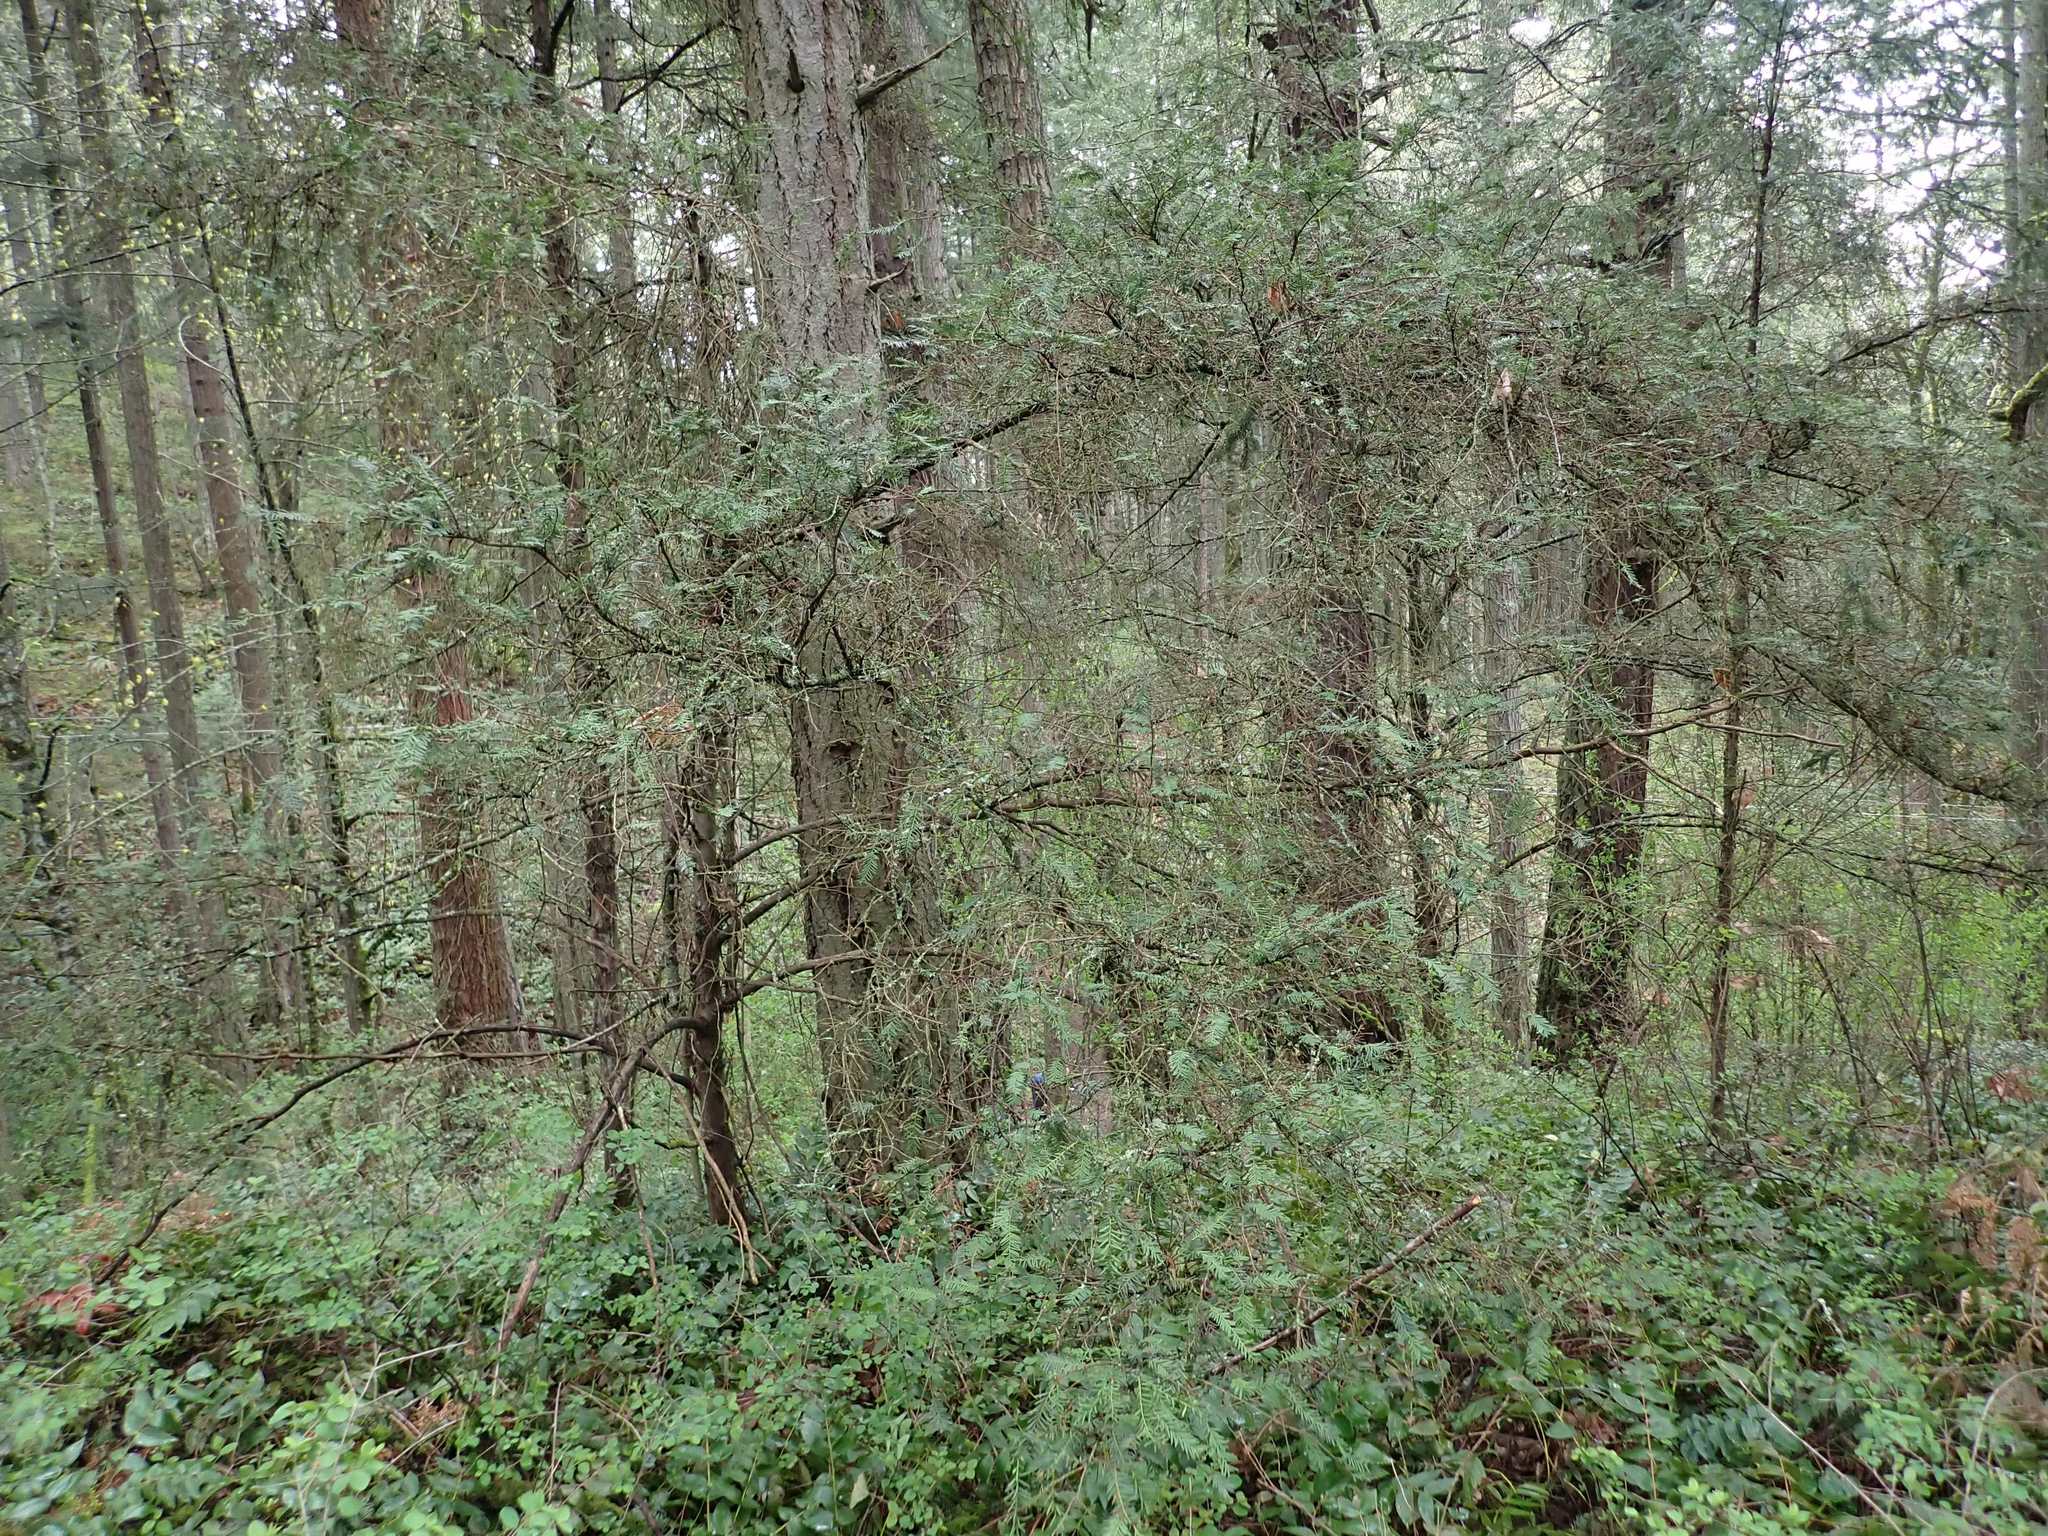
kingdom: Plantae
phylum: Tracheophyta
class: Pinopsida
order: Pinales
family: Taxaceae
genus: Taxus
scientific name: Taxus brevifolia
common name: Pacific yew
